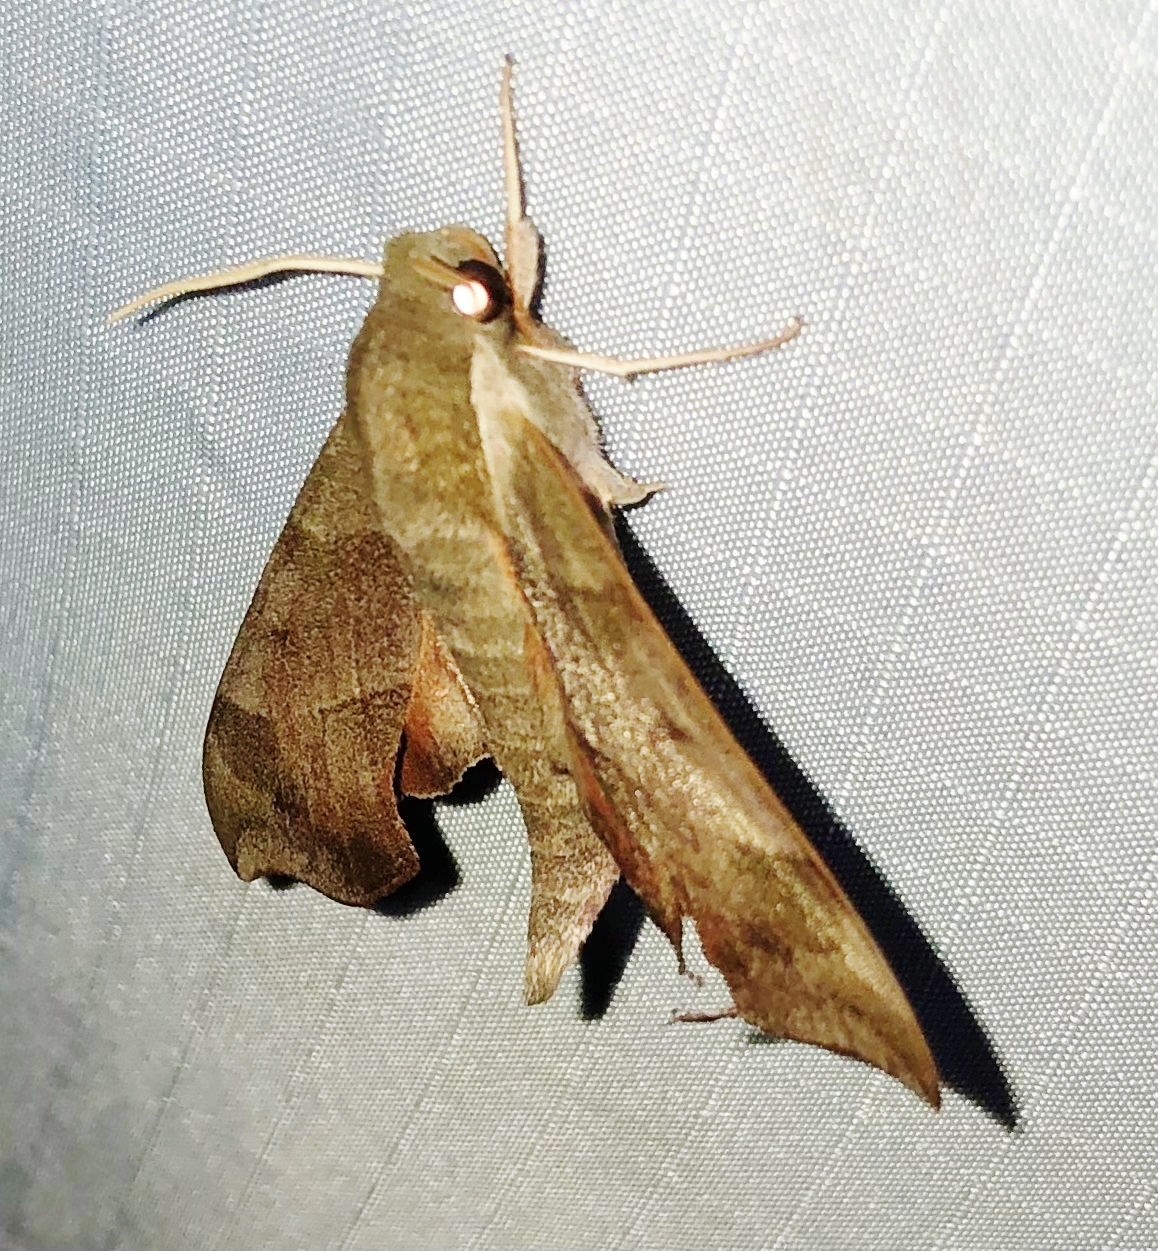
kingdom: Animalia
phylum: Arthropoda
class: Insecta
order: Lepidoptera
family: Sphingidae
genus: Darapsa
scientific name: Darapsa myron
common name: Hog sphinx
